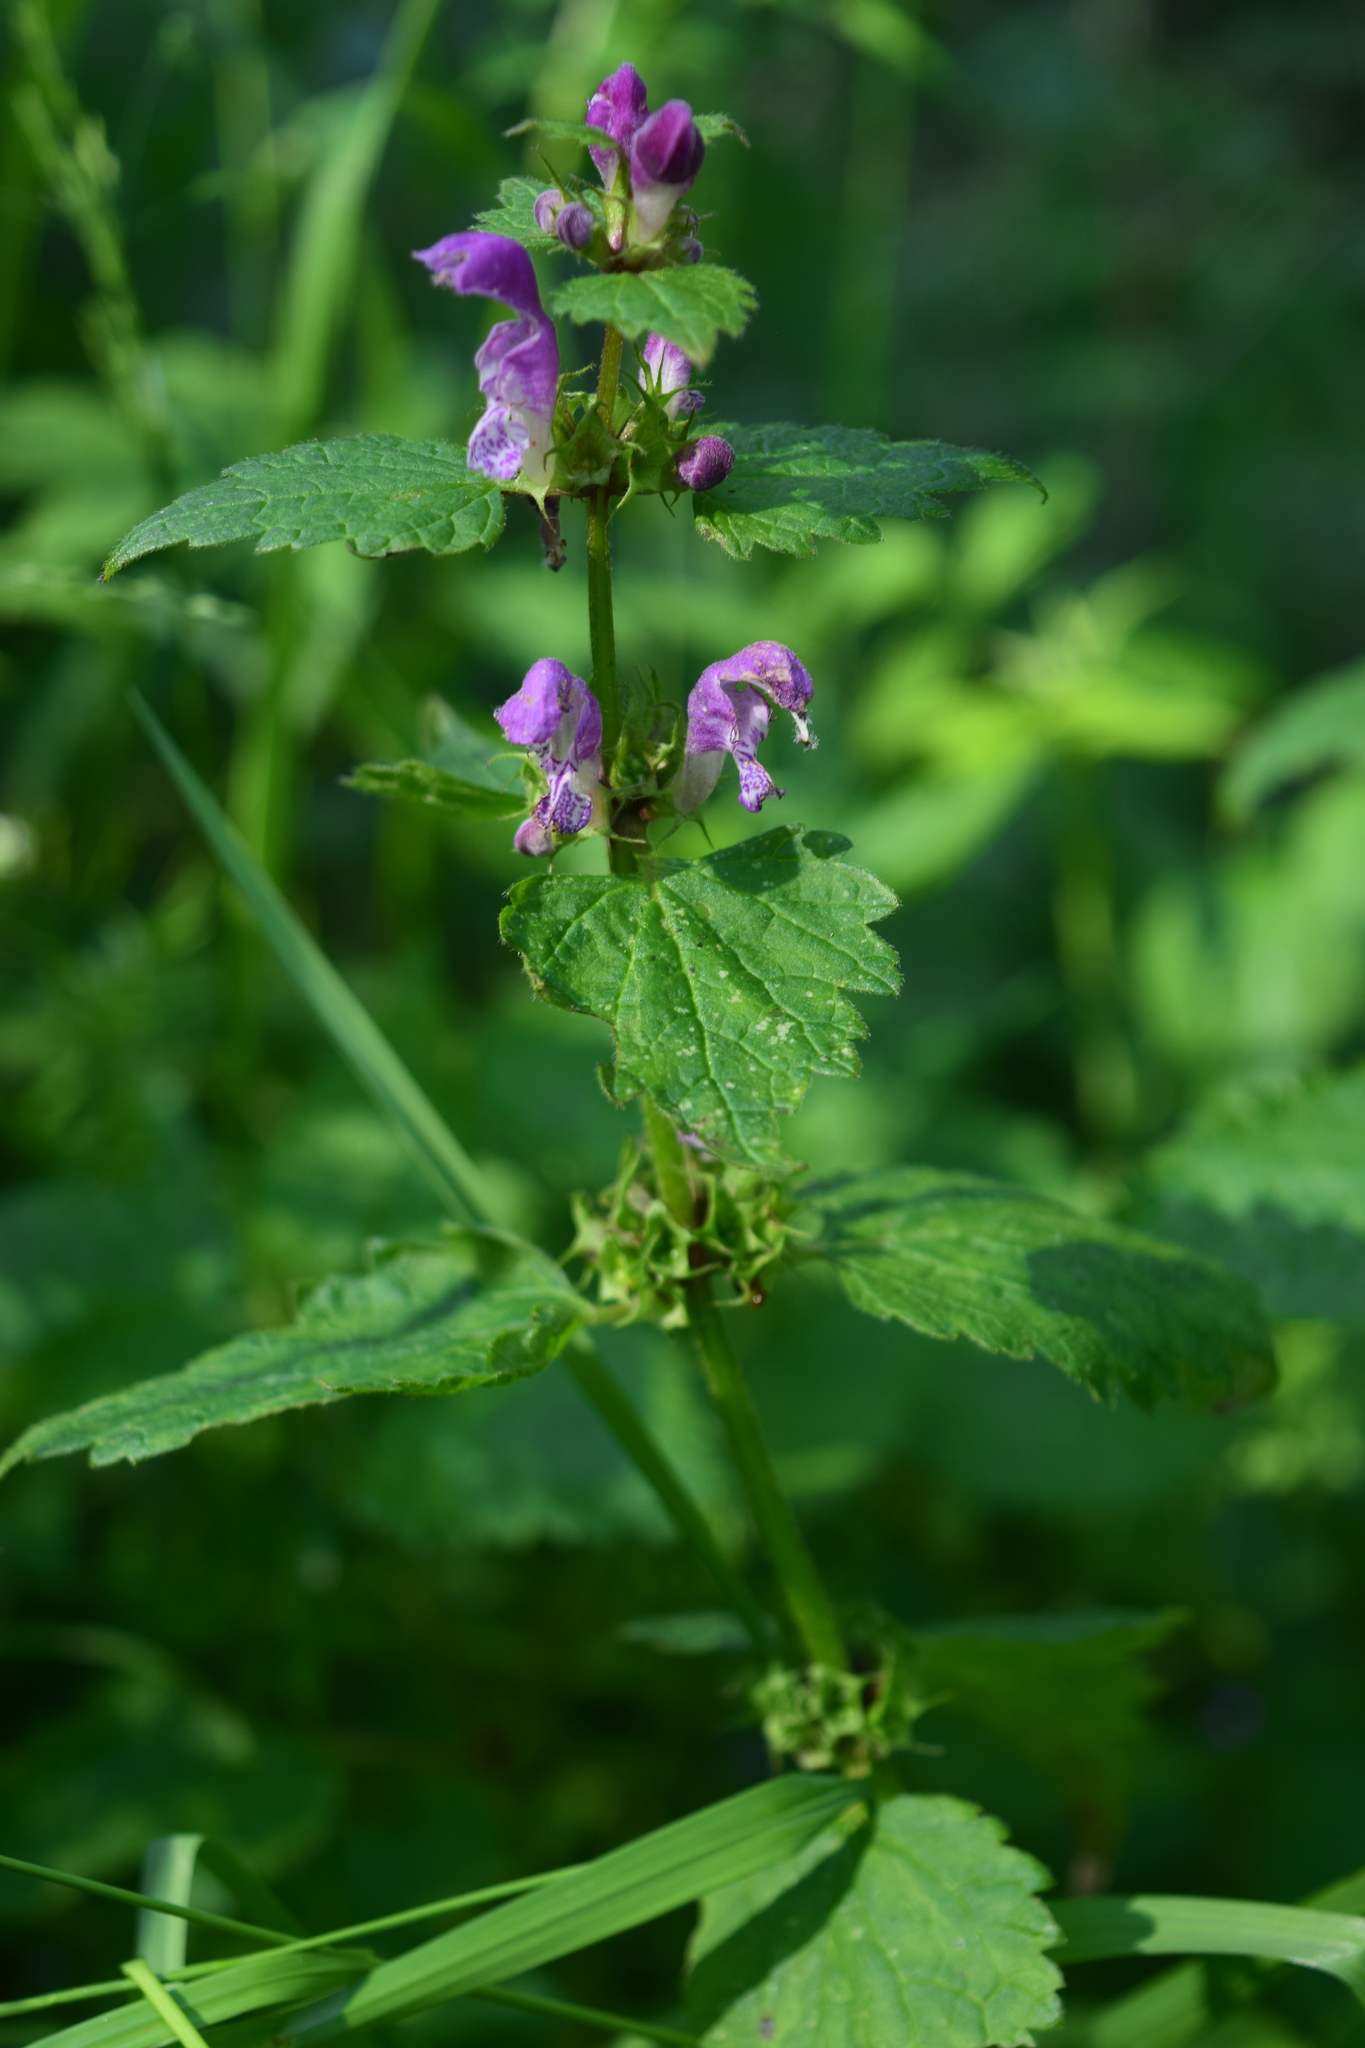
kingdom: Plantae
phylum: Tracheophyta
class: Magnoliopsida
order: Lamiales
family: Lamiaceae
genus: Lamium
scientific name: Lamium maculatum
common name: Spotted dead-nettle
